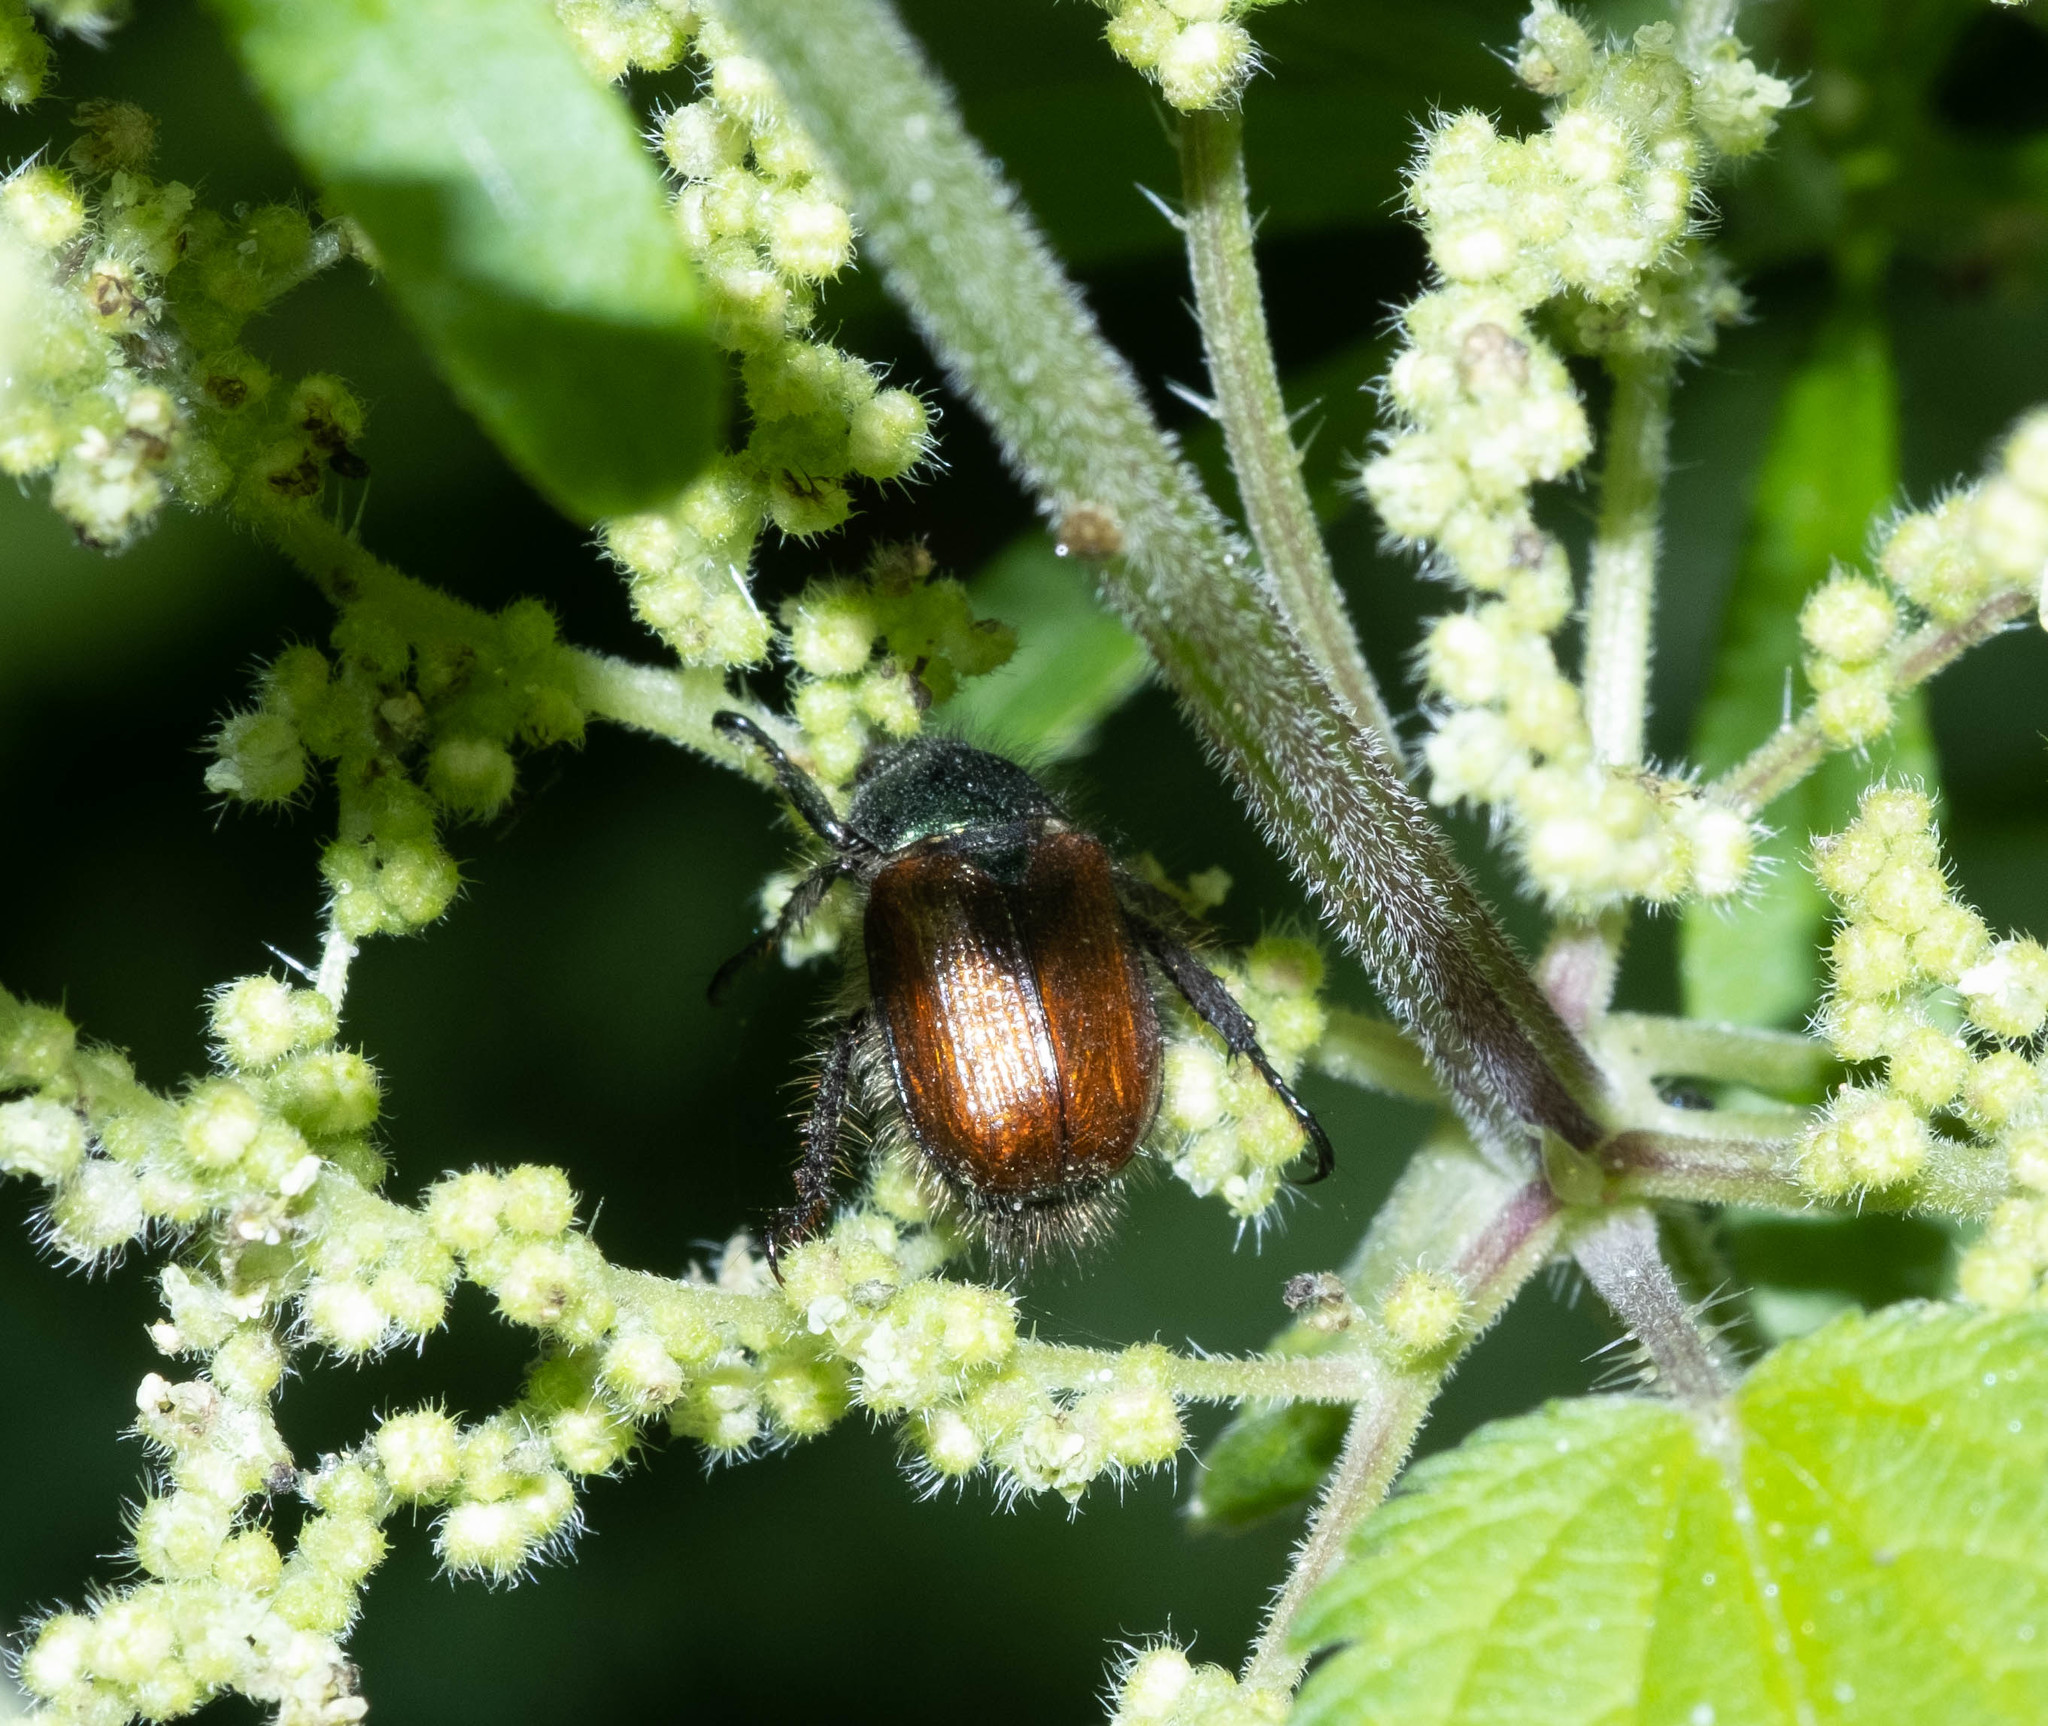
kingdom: Animalia
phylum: Arthropoda
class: Insecta
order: Coleoptera
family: Scarabaeidae
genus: Phyllopertha
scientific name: Phyllopertha horticola
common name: Garden chafer
